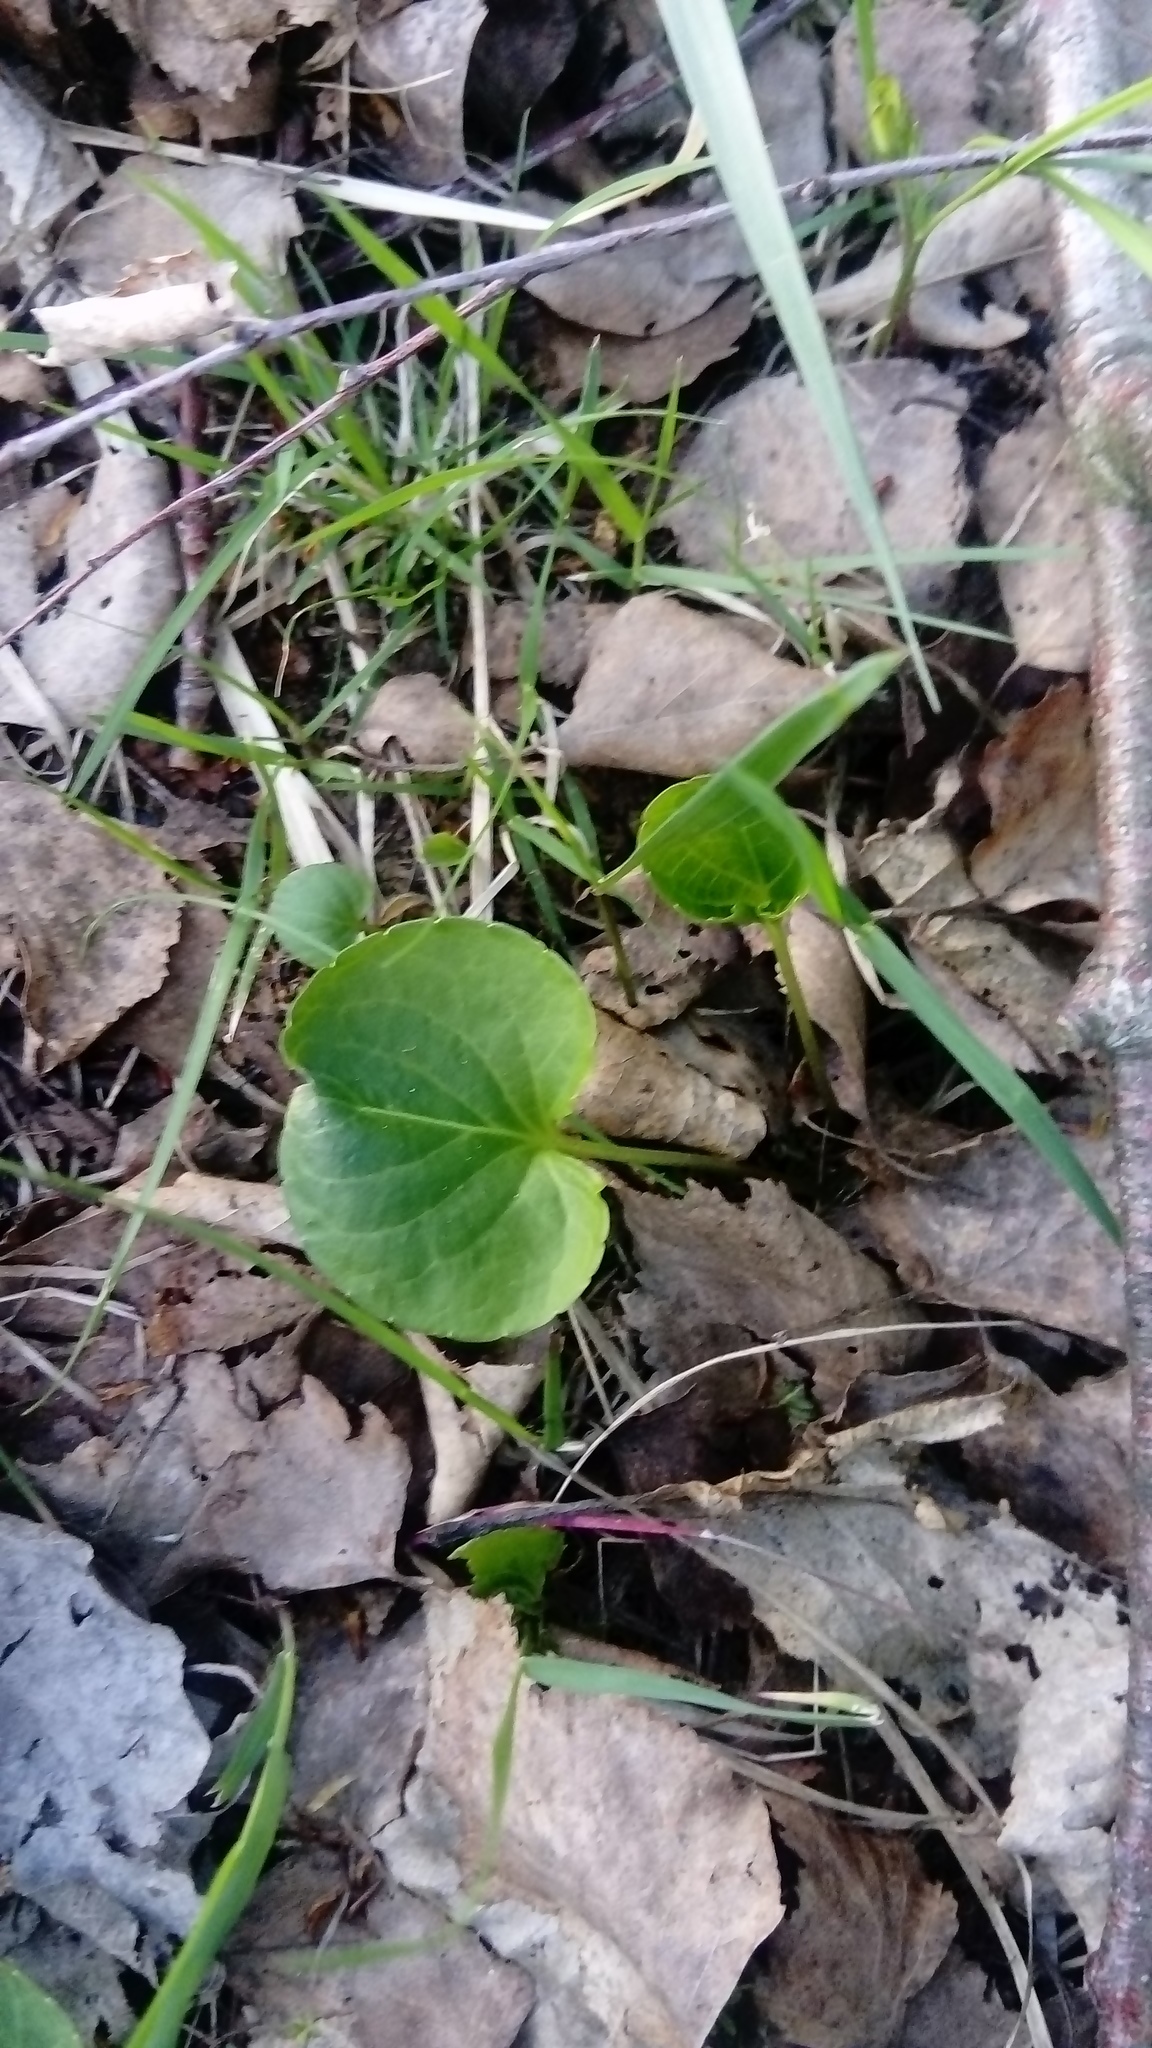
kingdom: Plantae
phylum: Tracheophyta
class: Magnoliopsida
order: Malpighiales
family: Violaceae
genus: Viola
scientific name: Viola palustris
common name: Marsh violet
